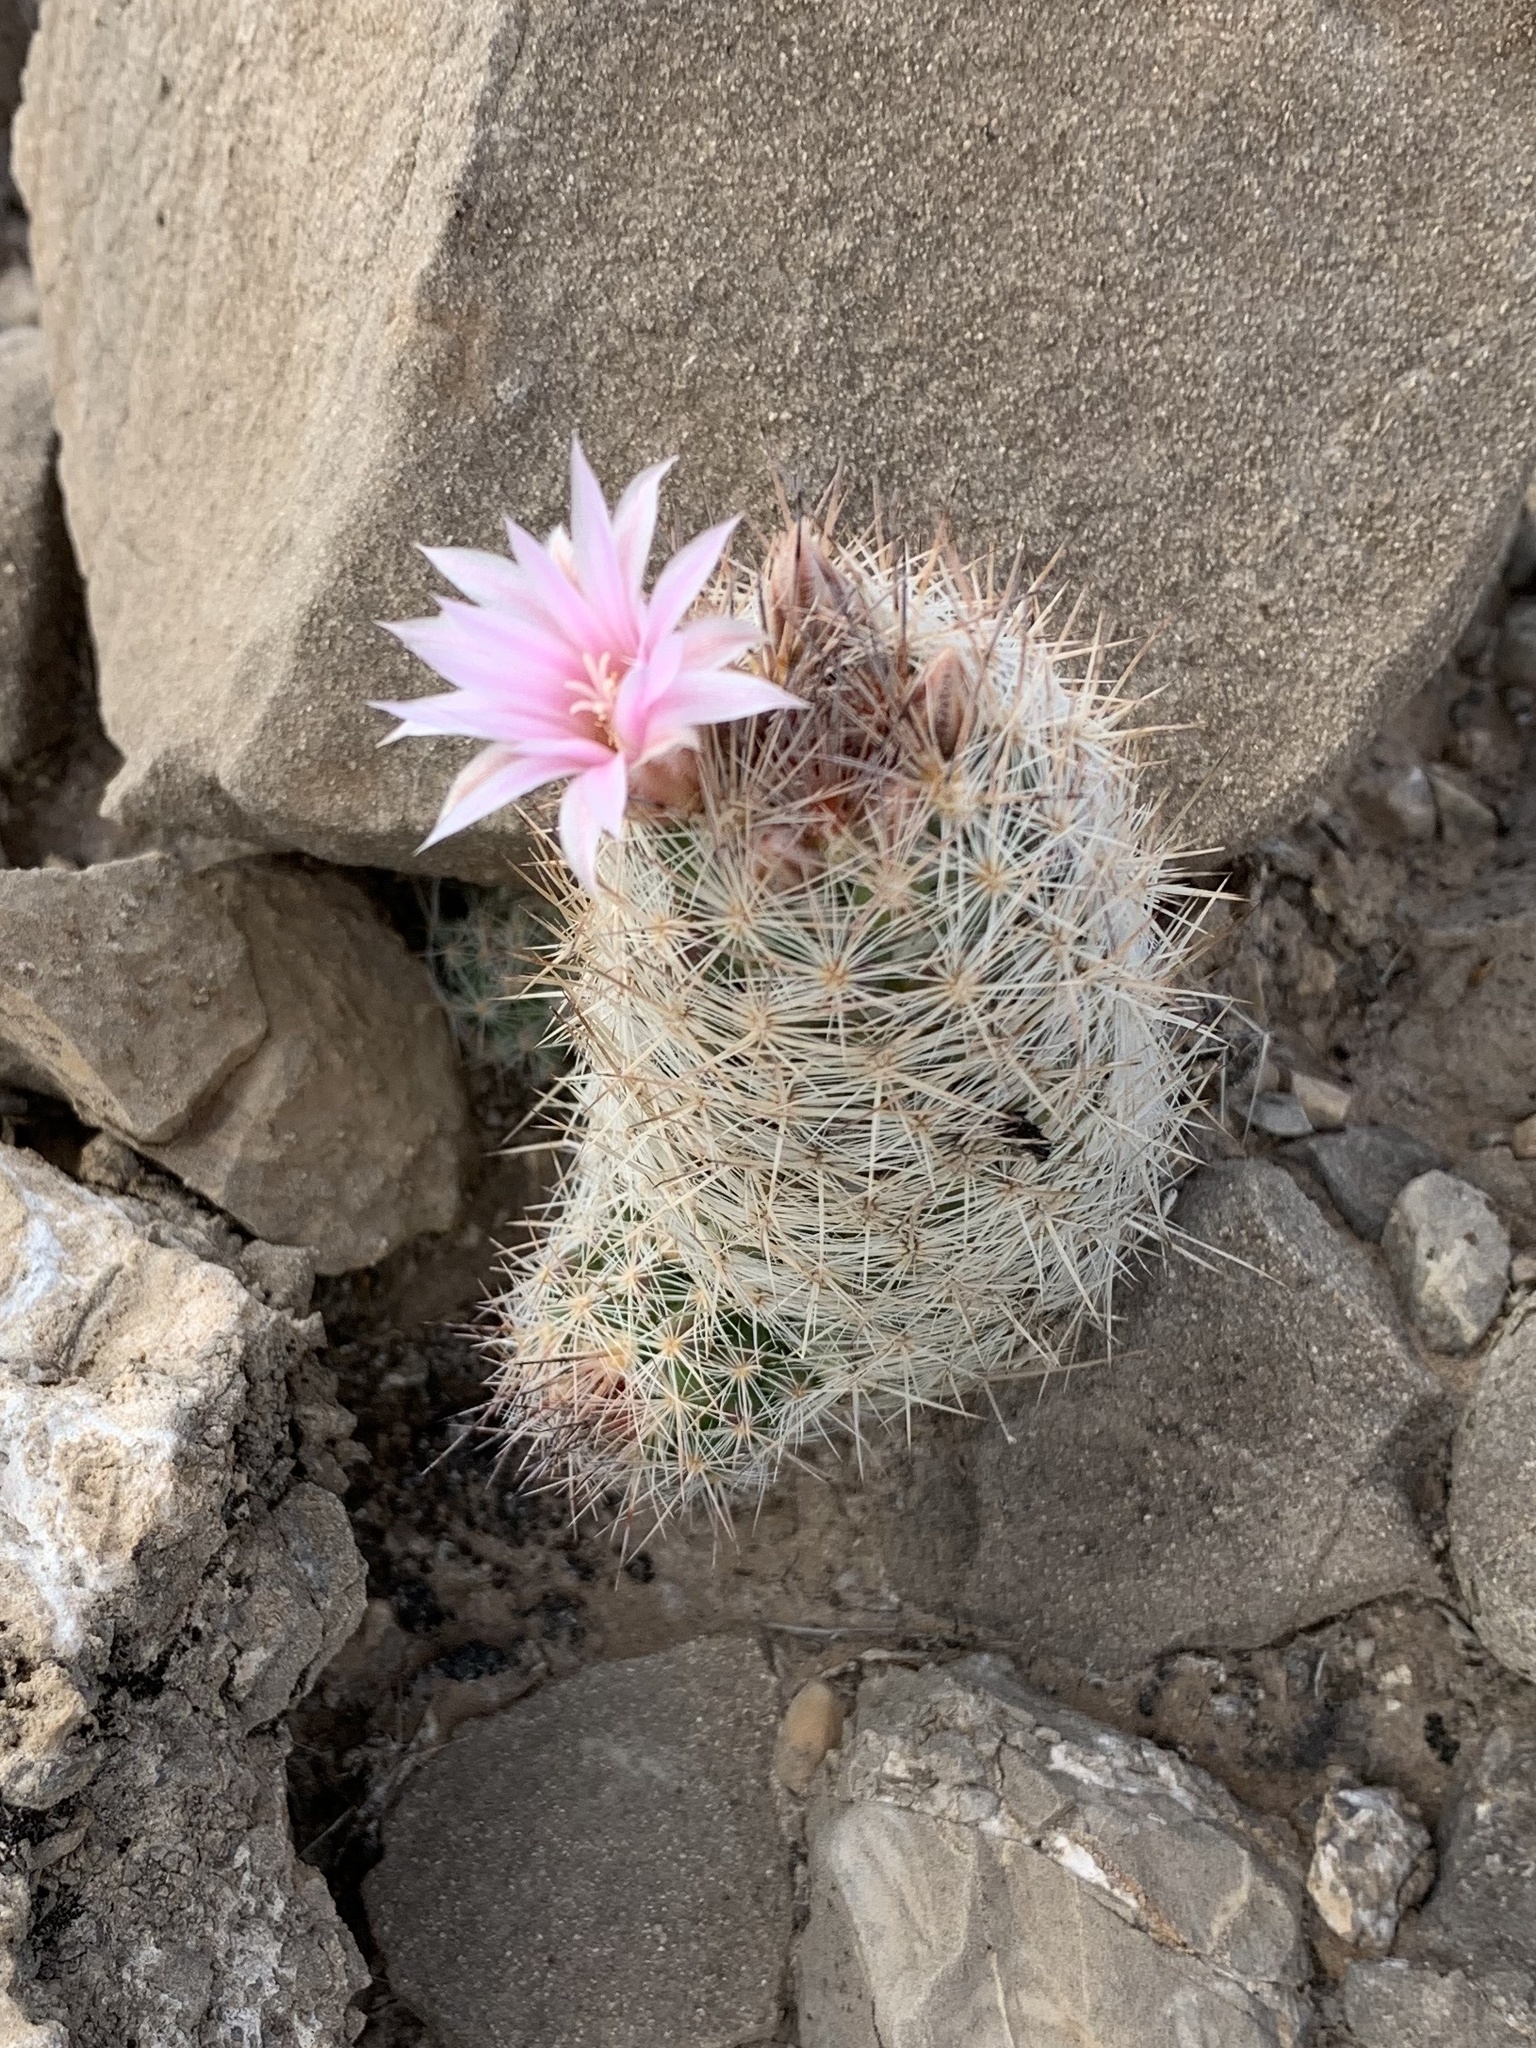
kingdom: Plantae
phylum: Tracheophyta
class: Magnoliopsida
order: Caryophyllales
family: Cactaceae
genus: Pelecyphora
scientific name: Pelecyphora tuberculosa
